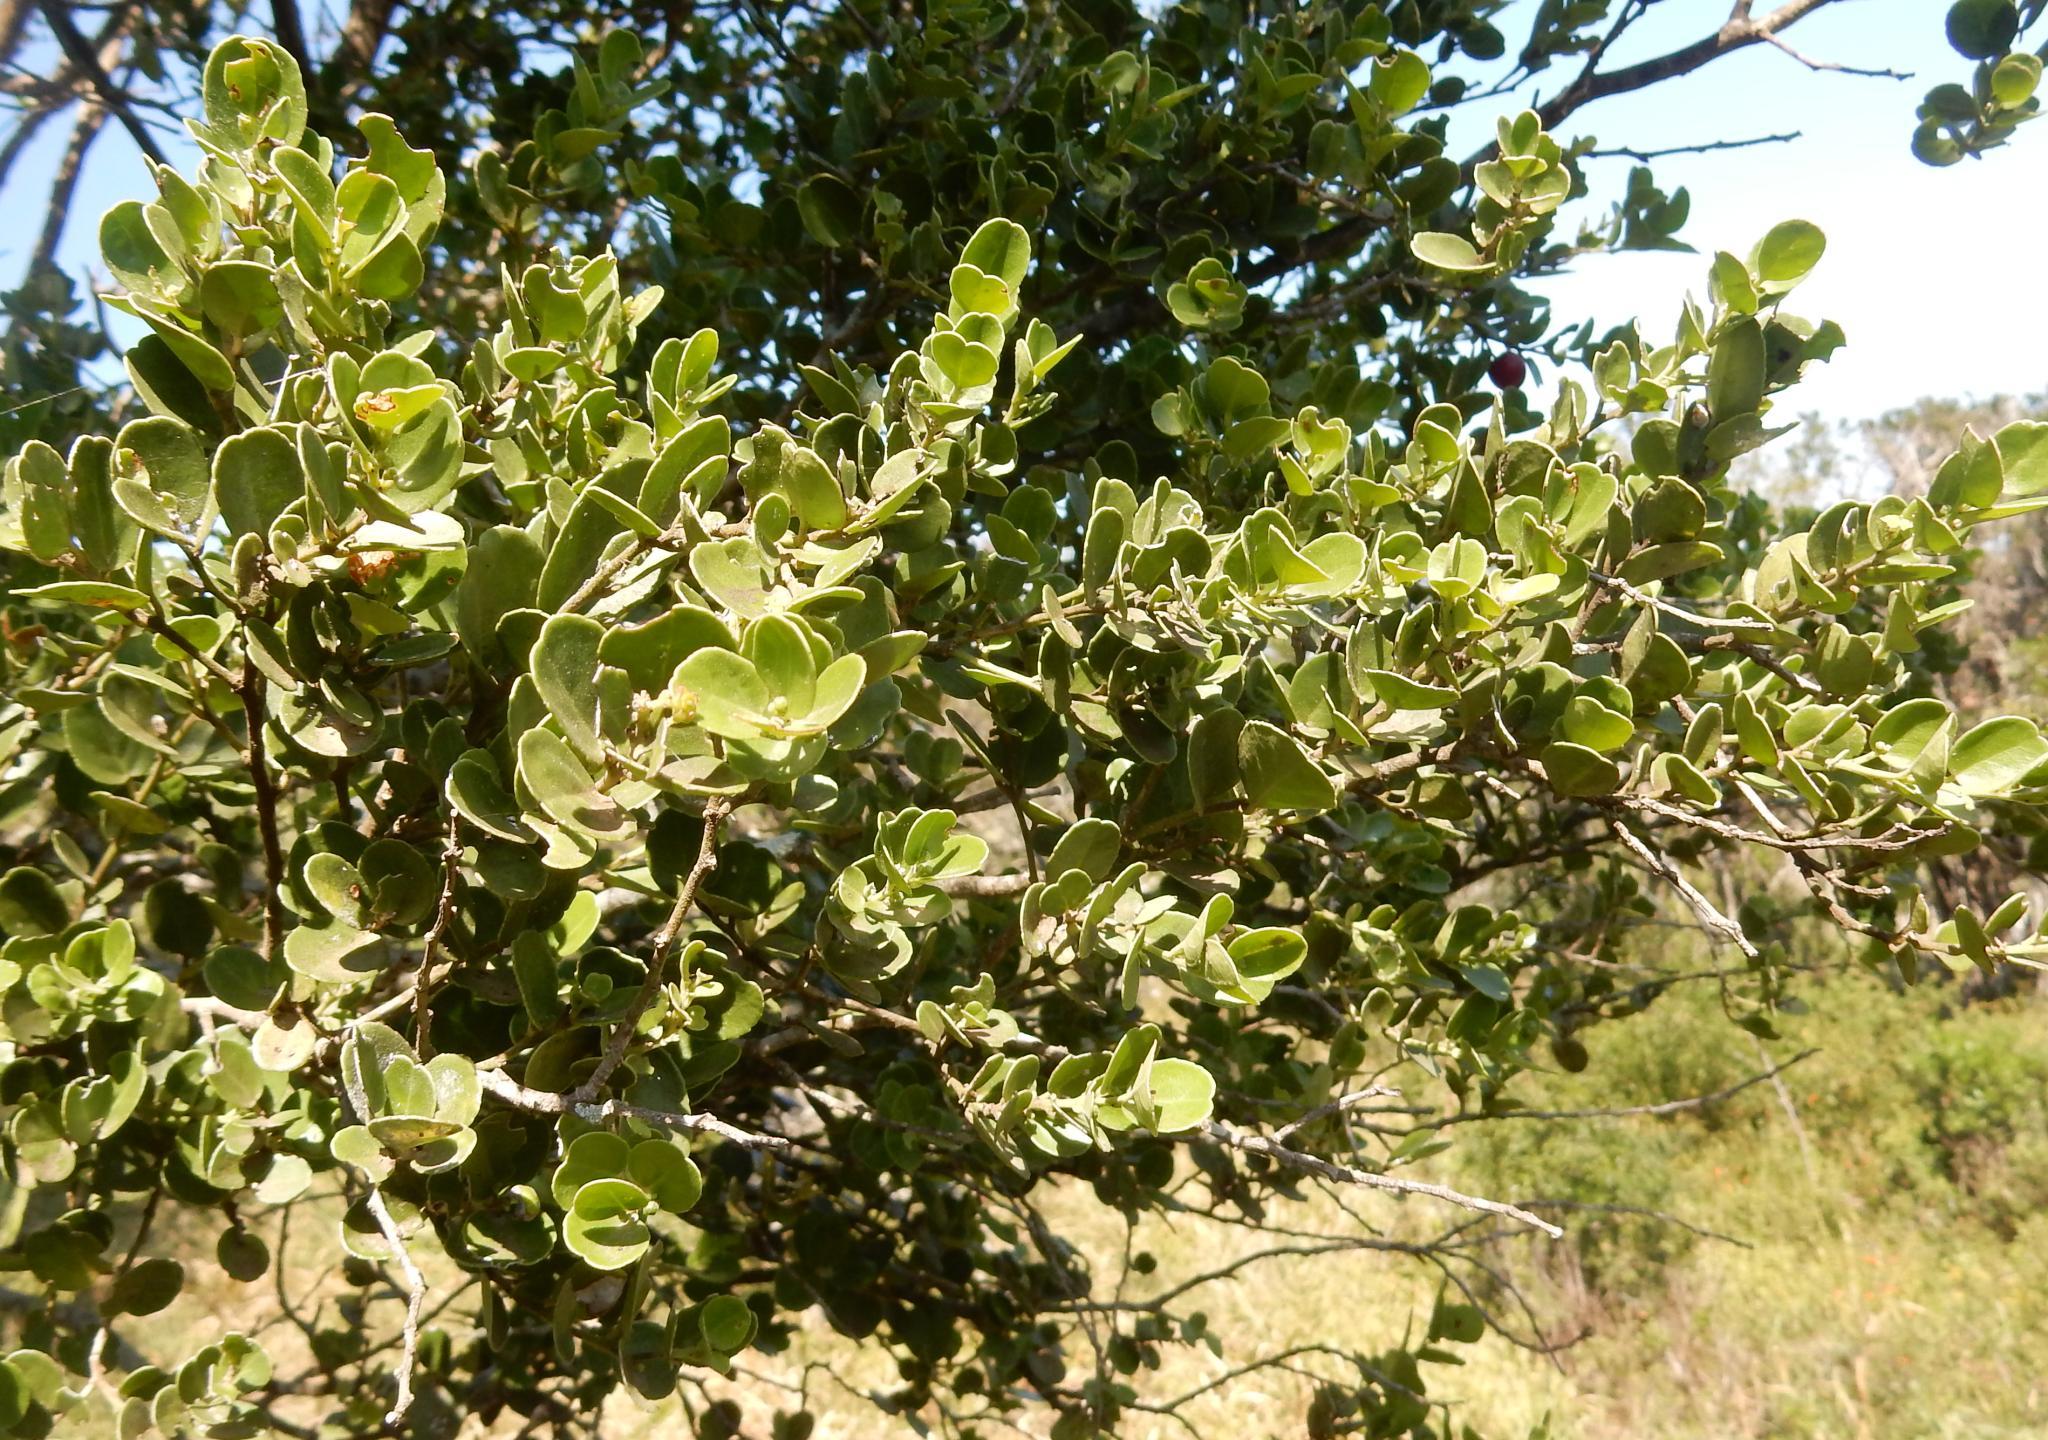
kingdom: Plantae
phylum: Tracheophyta
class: Magnoliopsida
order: Celastrales
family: Celastraceae
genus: Mystroxylon
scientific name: Mystroxylon aethiopicum
